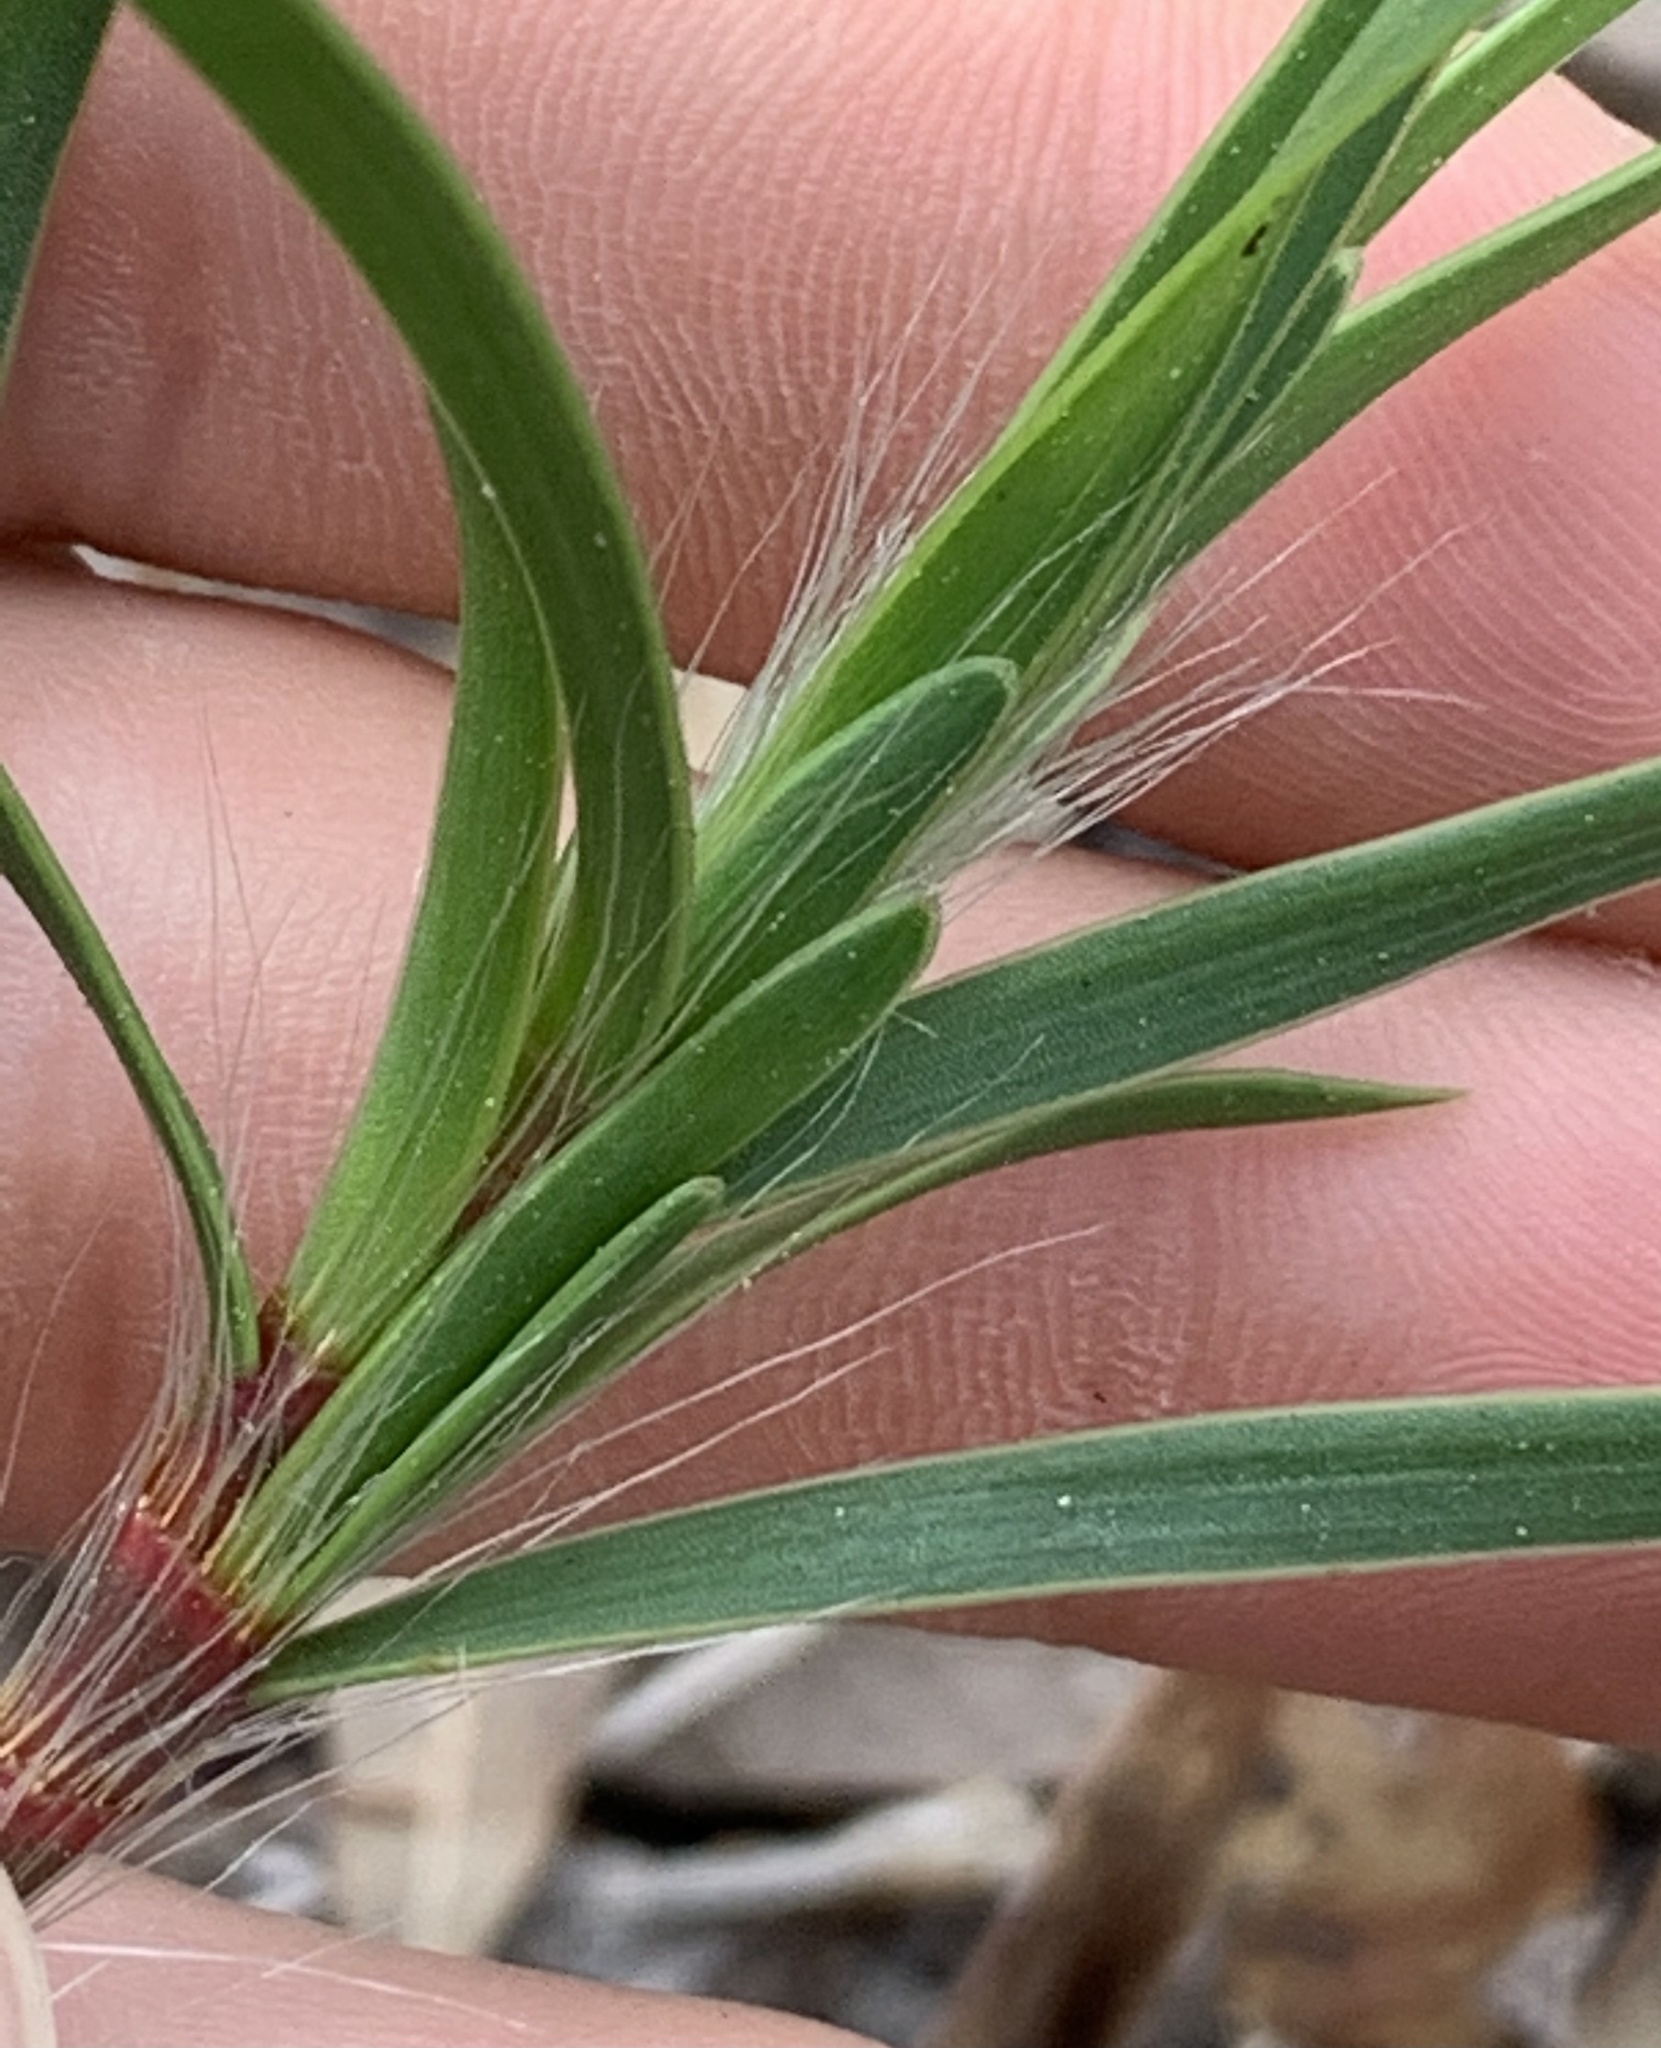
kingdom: Plantae
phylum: Tracheophyta
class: Magnoliopsida
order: Caryophyllales
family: Polygonaceae
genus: Polygonella
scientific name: Polygonella robusta
